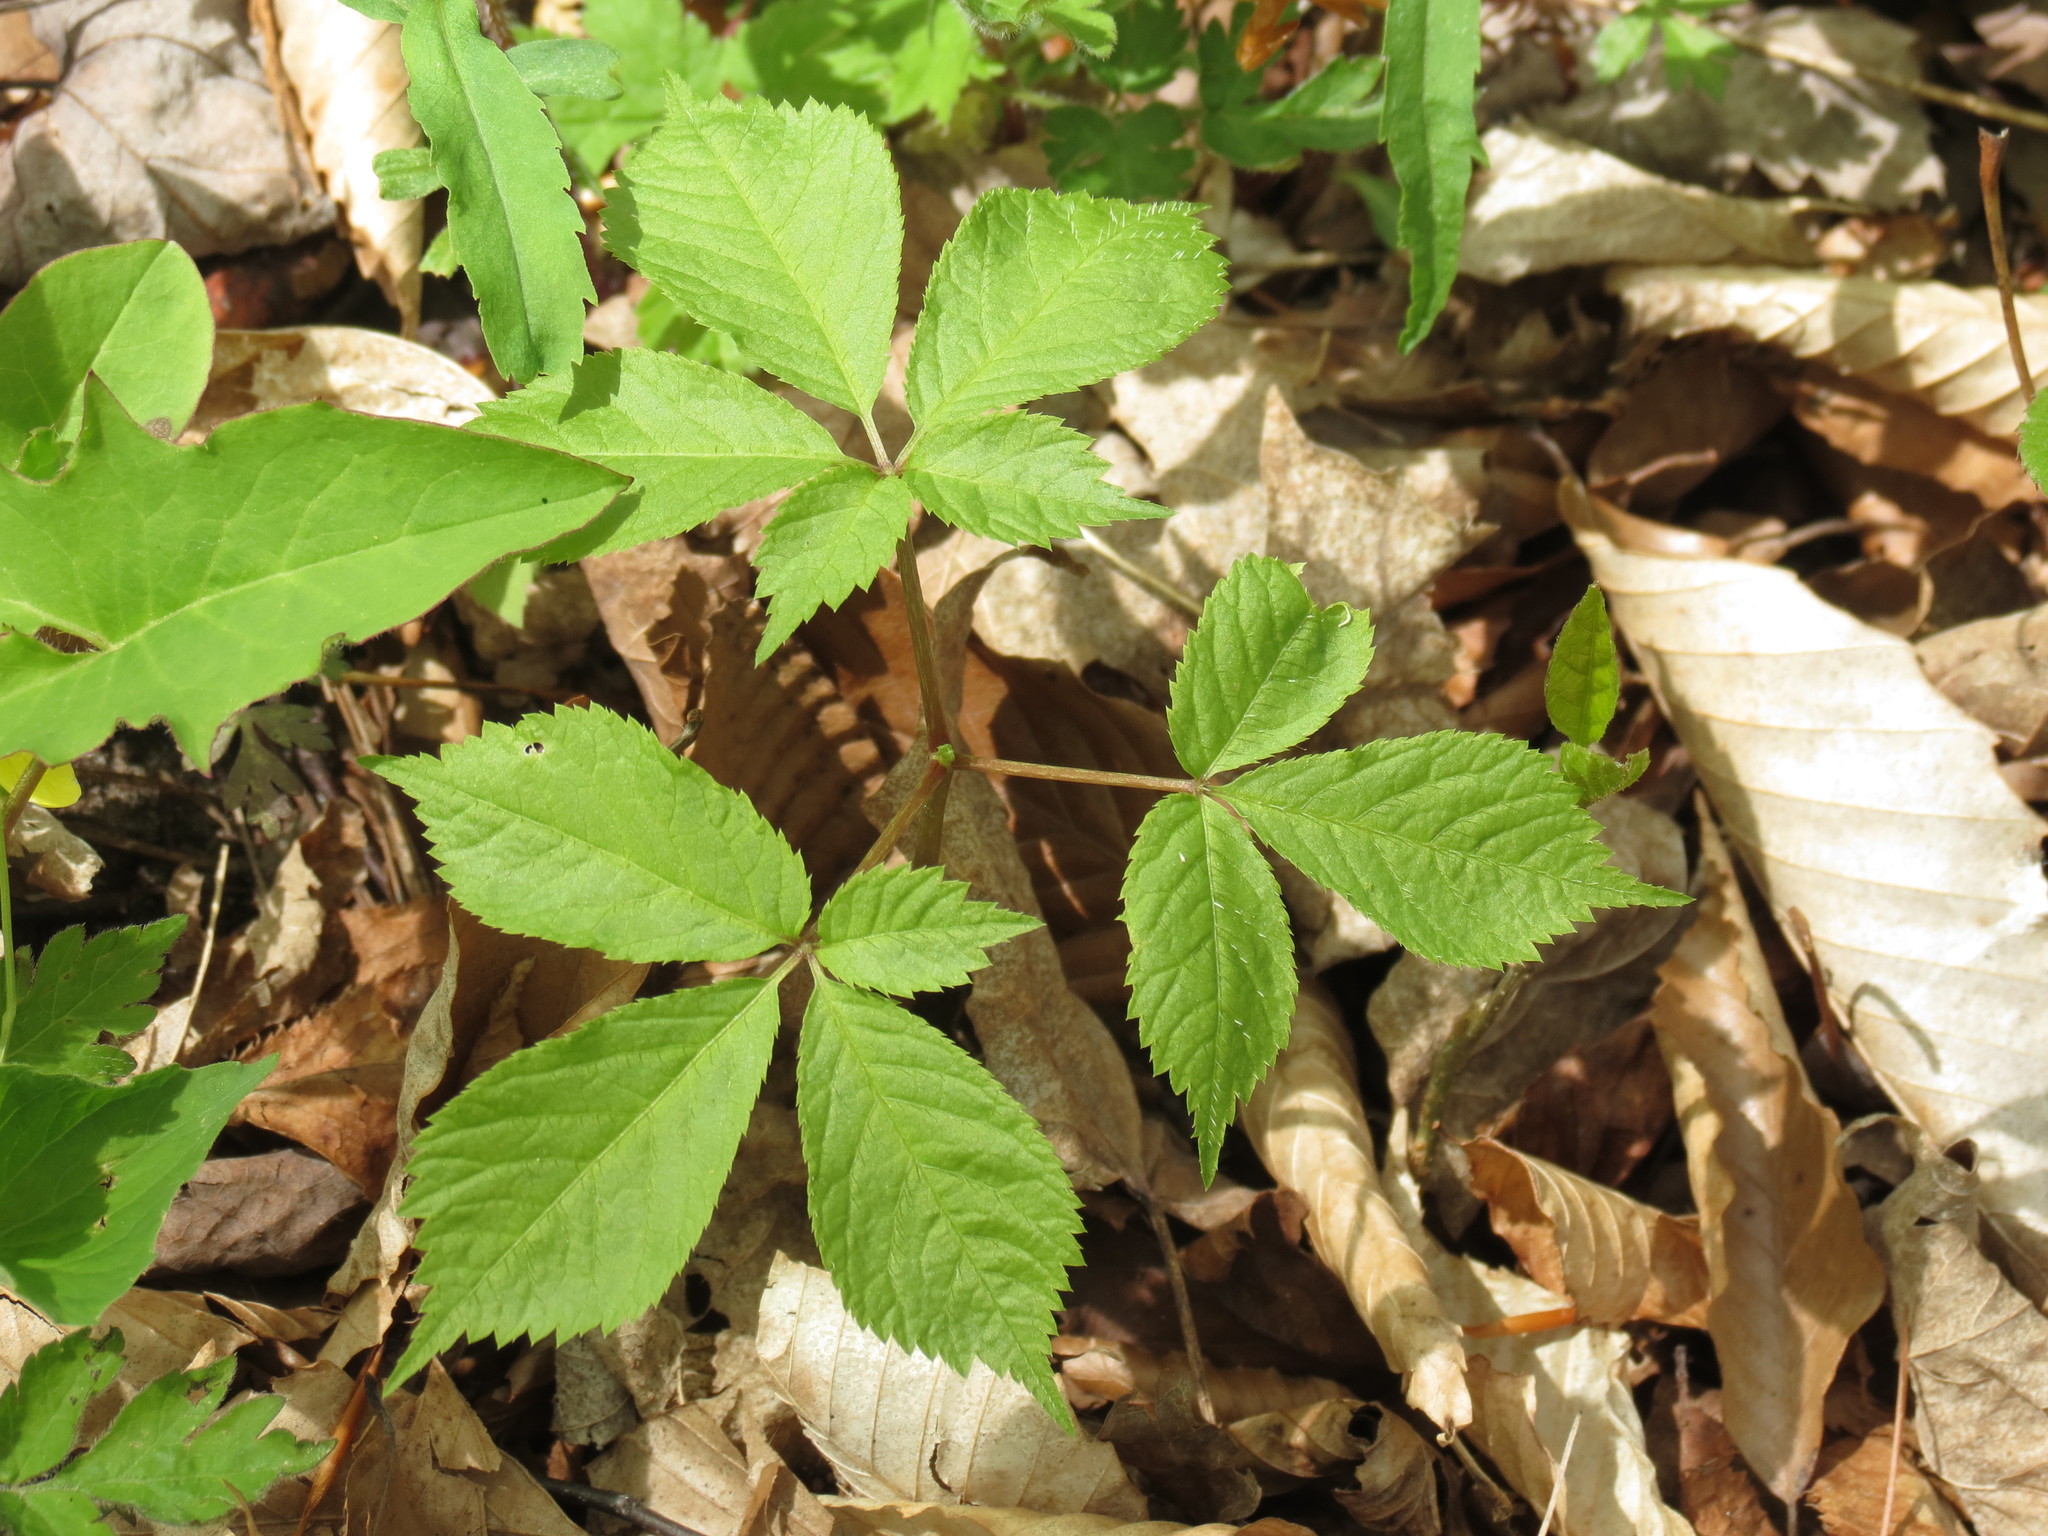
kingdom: Plantae
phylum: Tracheophyta
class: Magnoliopsida
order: Apiales
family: Araliaceae
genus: Panax
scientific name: Panax quinquefolius
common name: American ginseng
